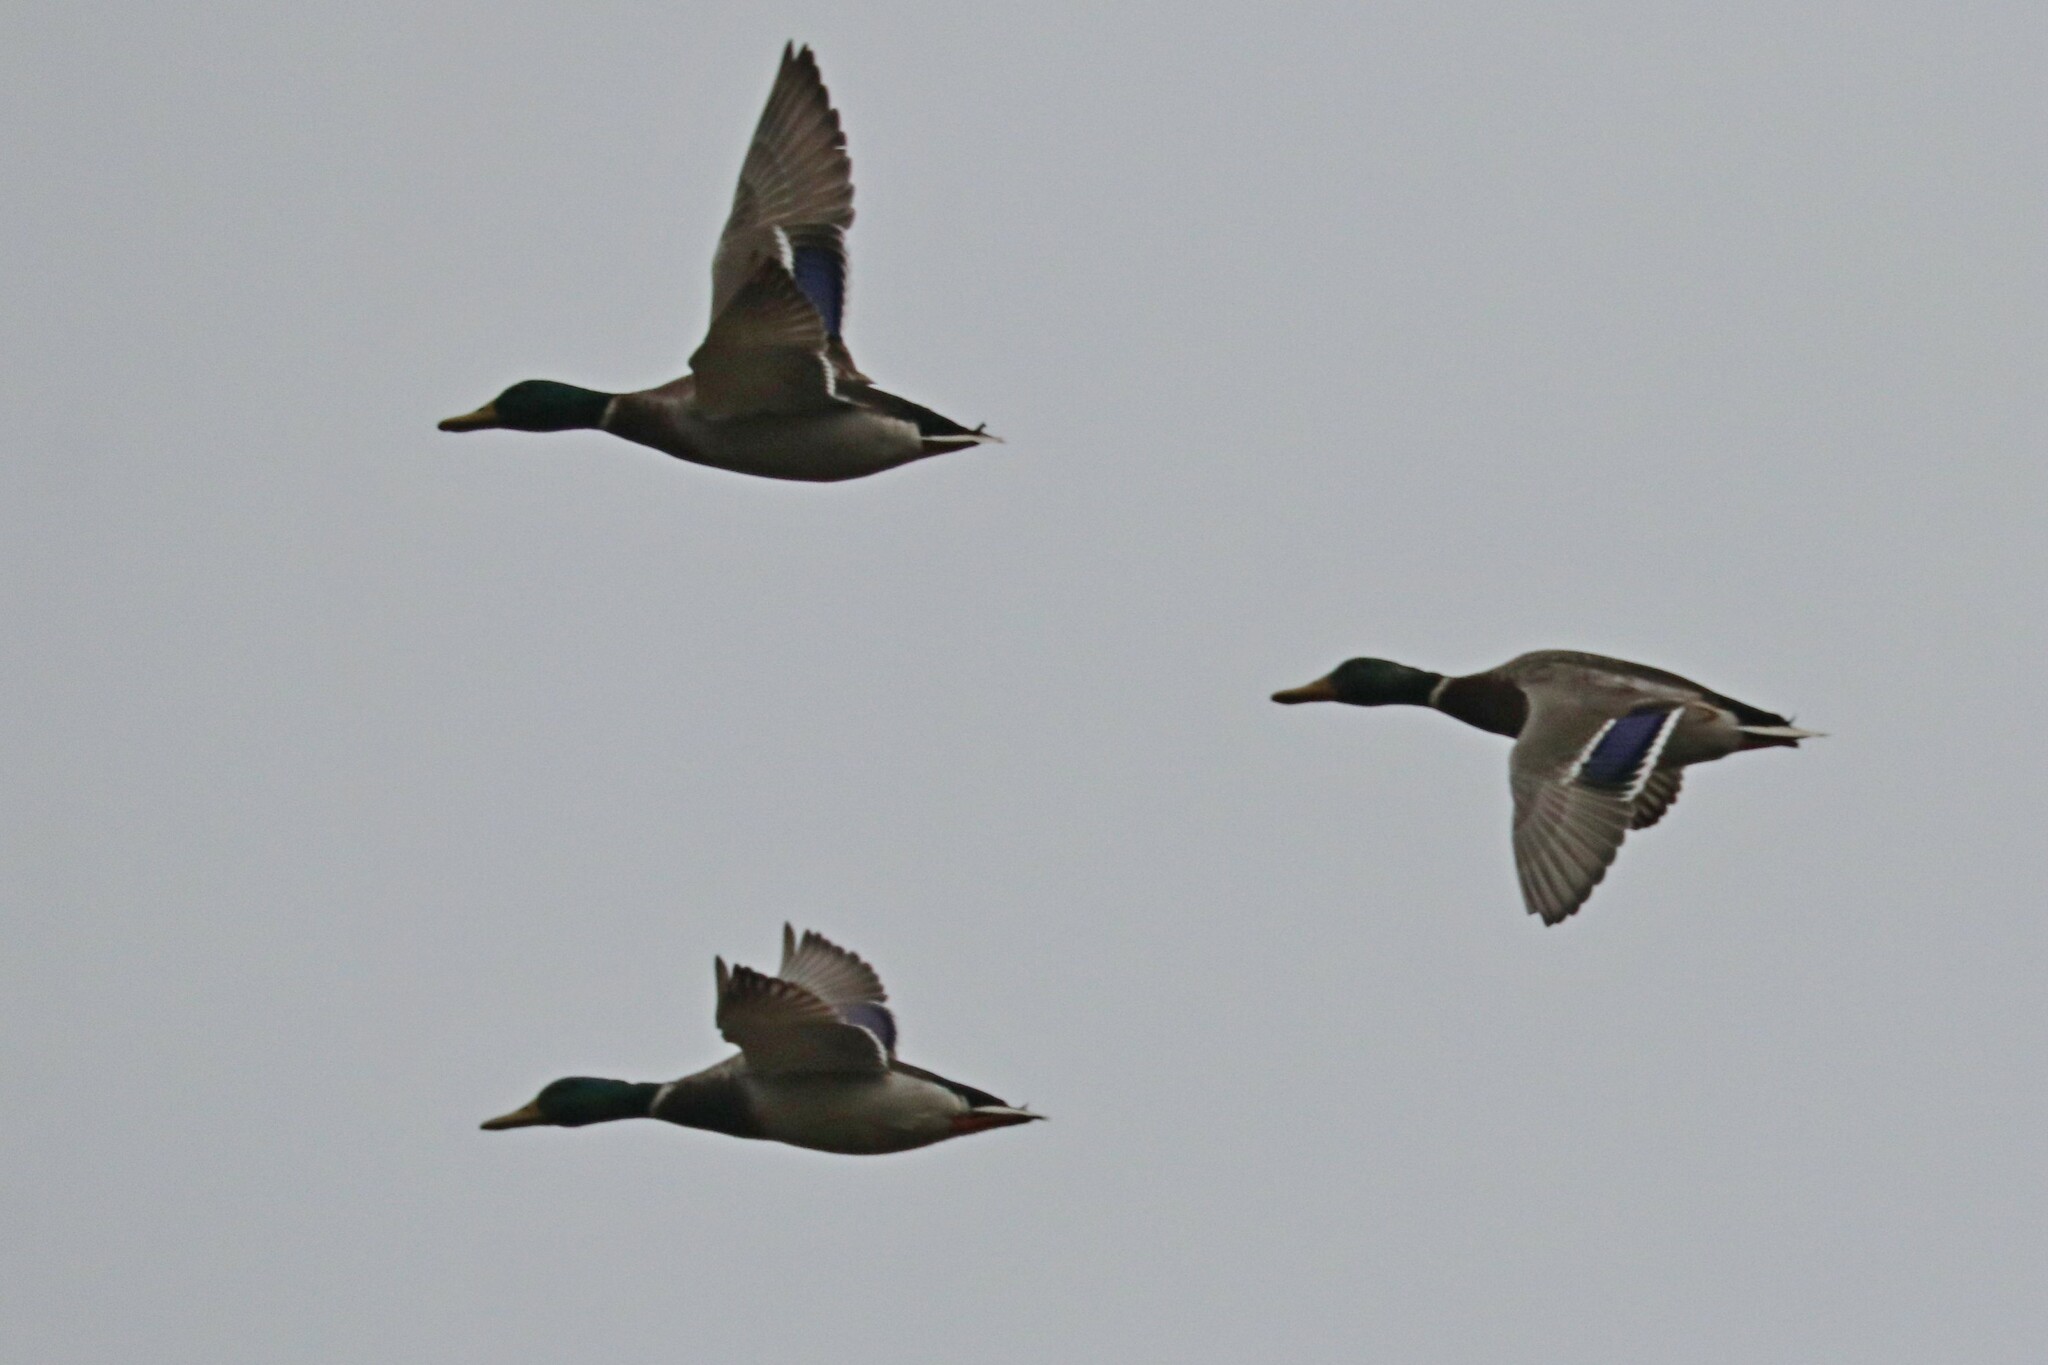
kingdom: Animalia
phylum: Chordata
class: Aves
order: Anseriformes
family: Anatidae
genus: Anas
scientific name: Anas platyrhynchos
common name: Mallard
